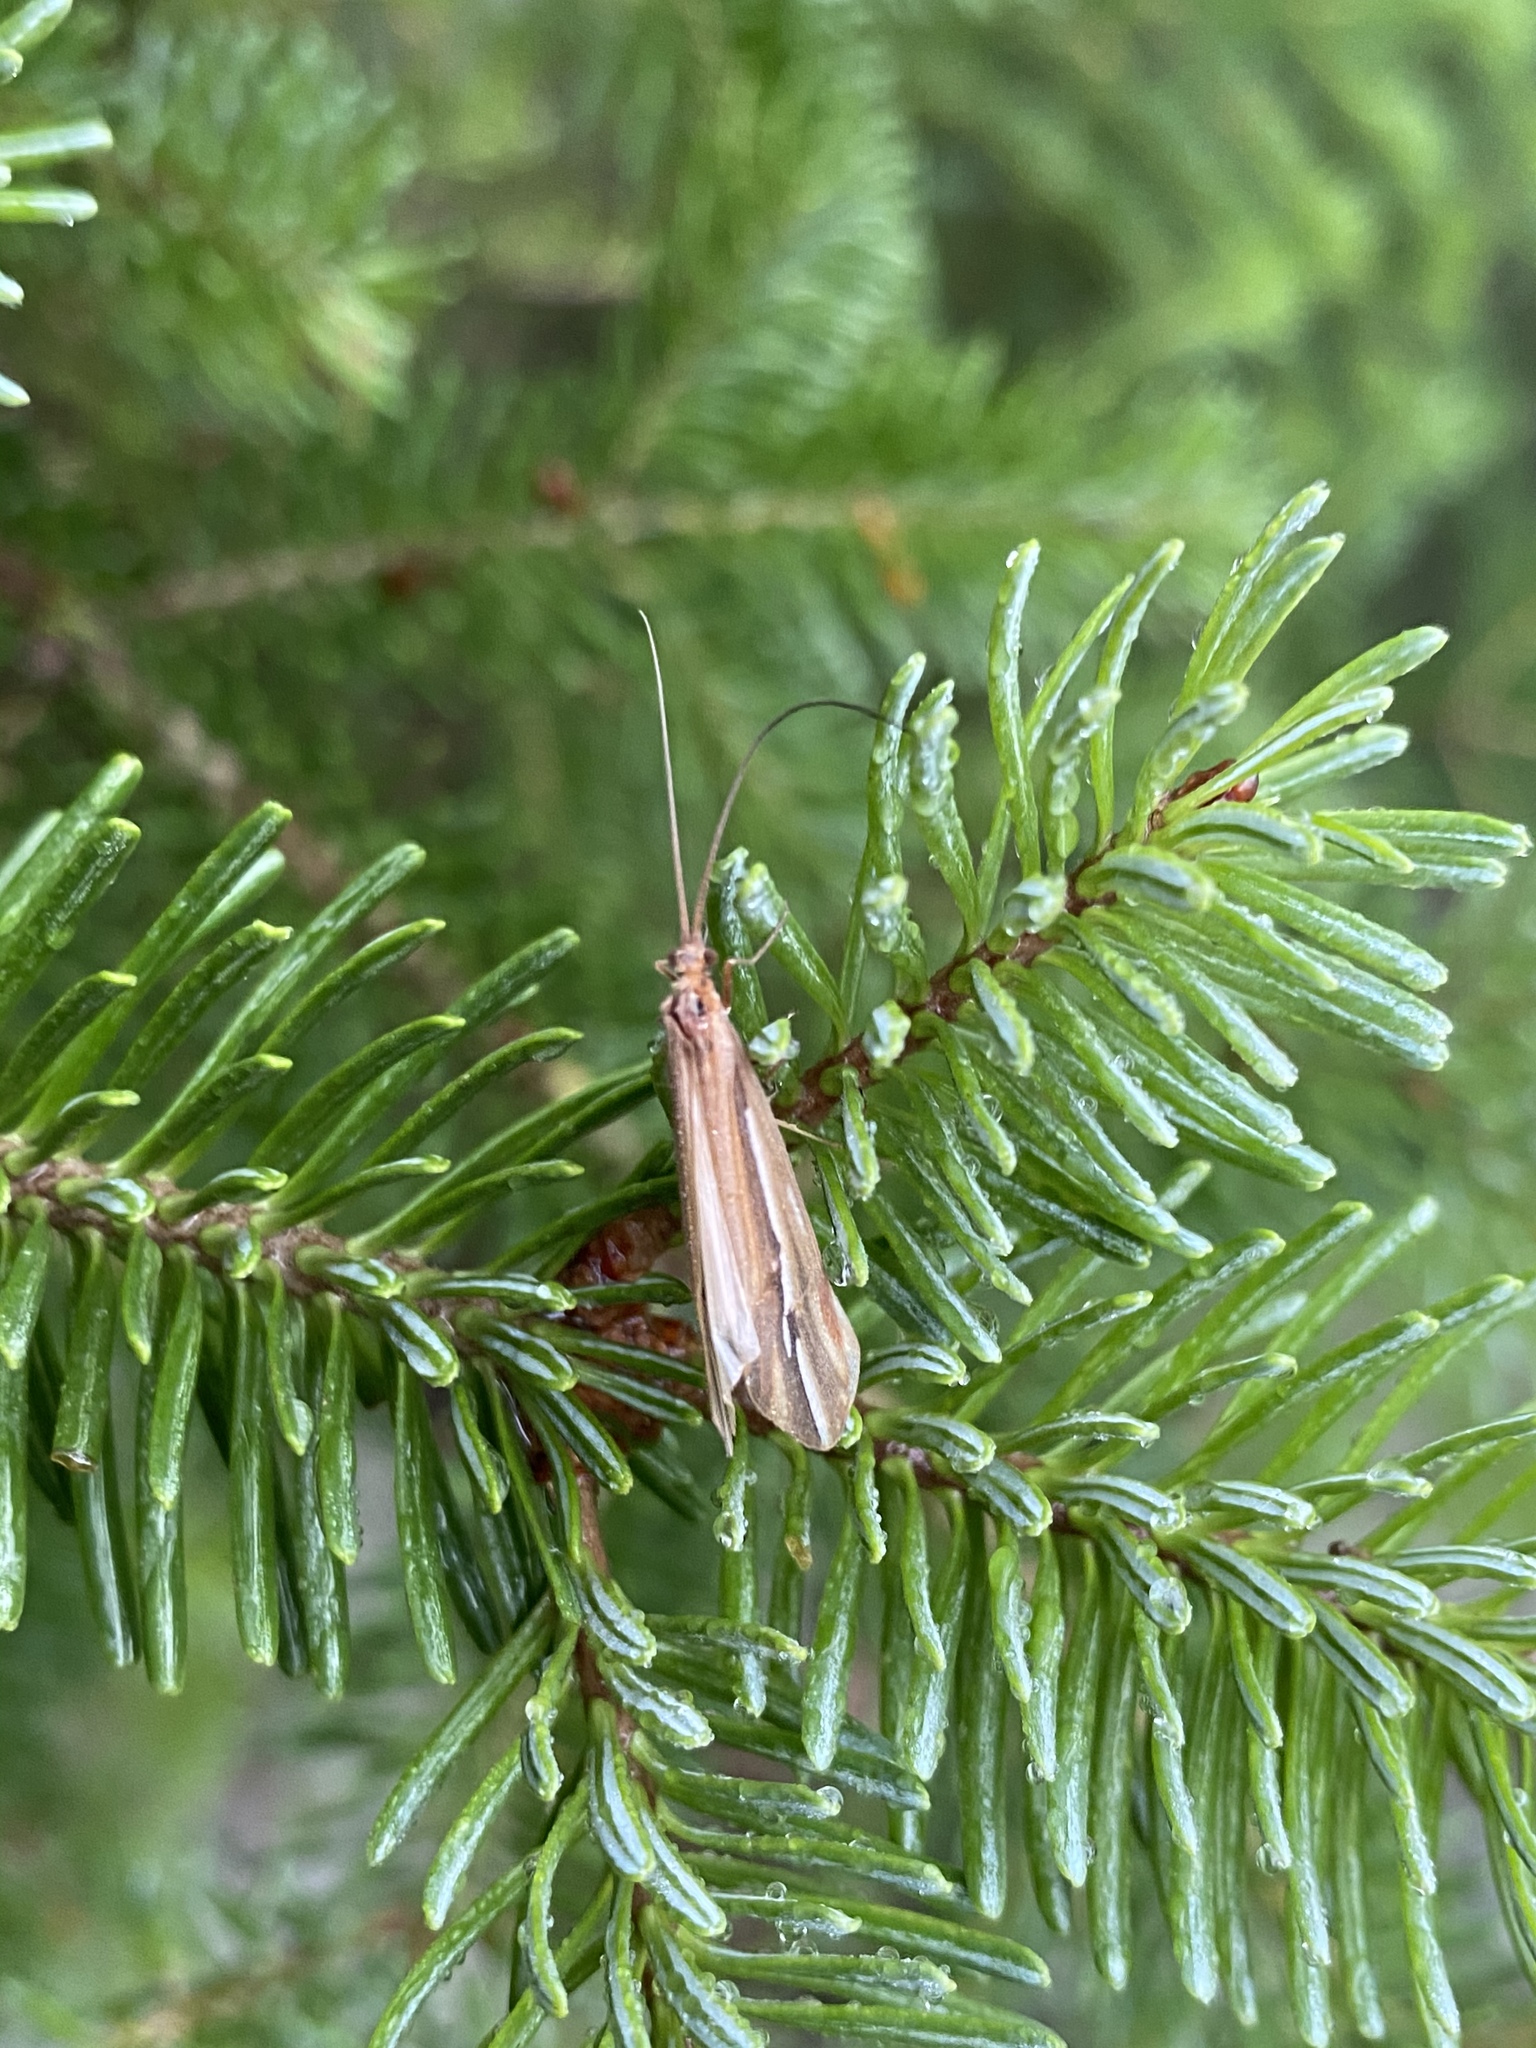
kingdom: Animalia
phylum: Arthropoda
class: Insecta
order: Trichoptera
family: Limnephilidae
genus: Psychoglypha
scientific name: Psychoglypha subborealis
